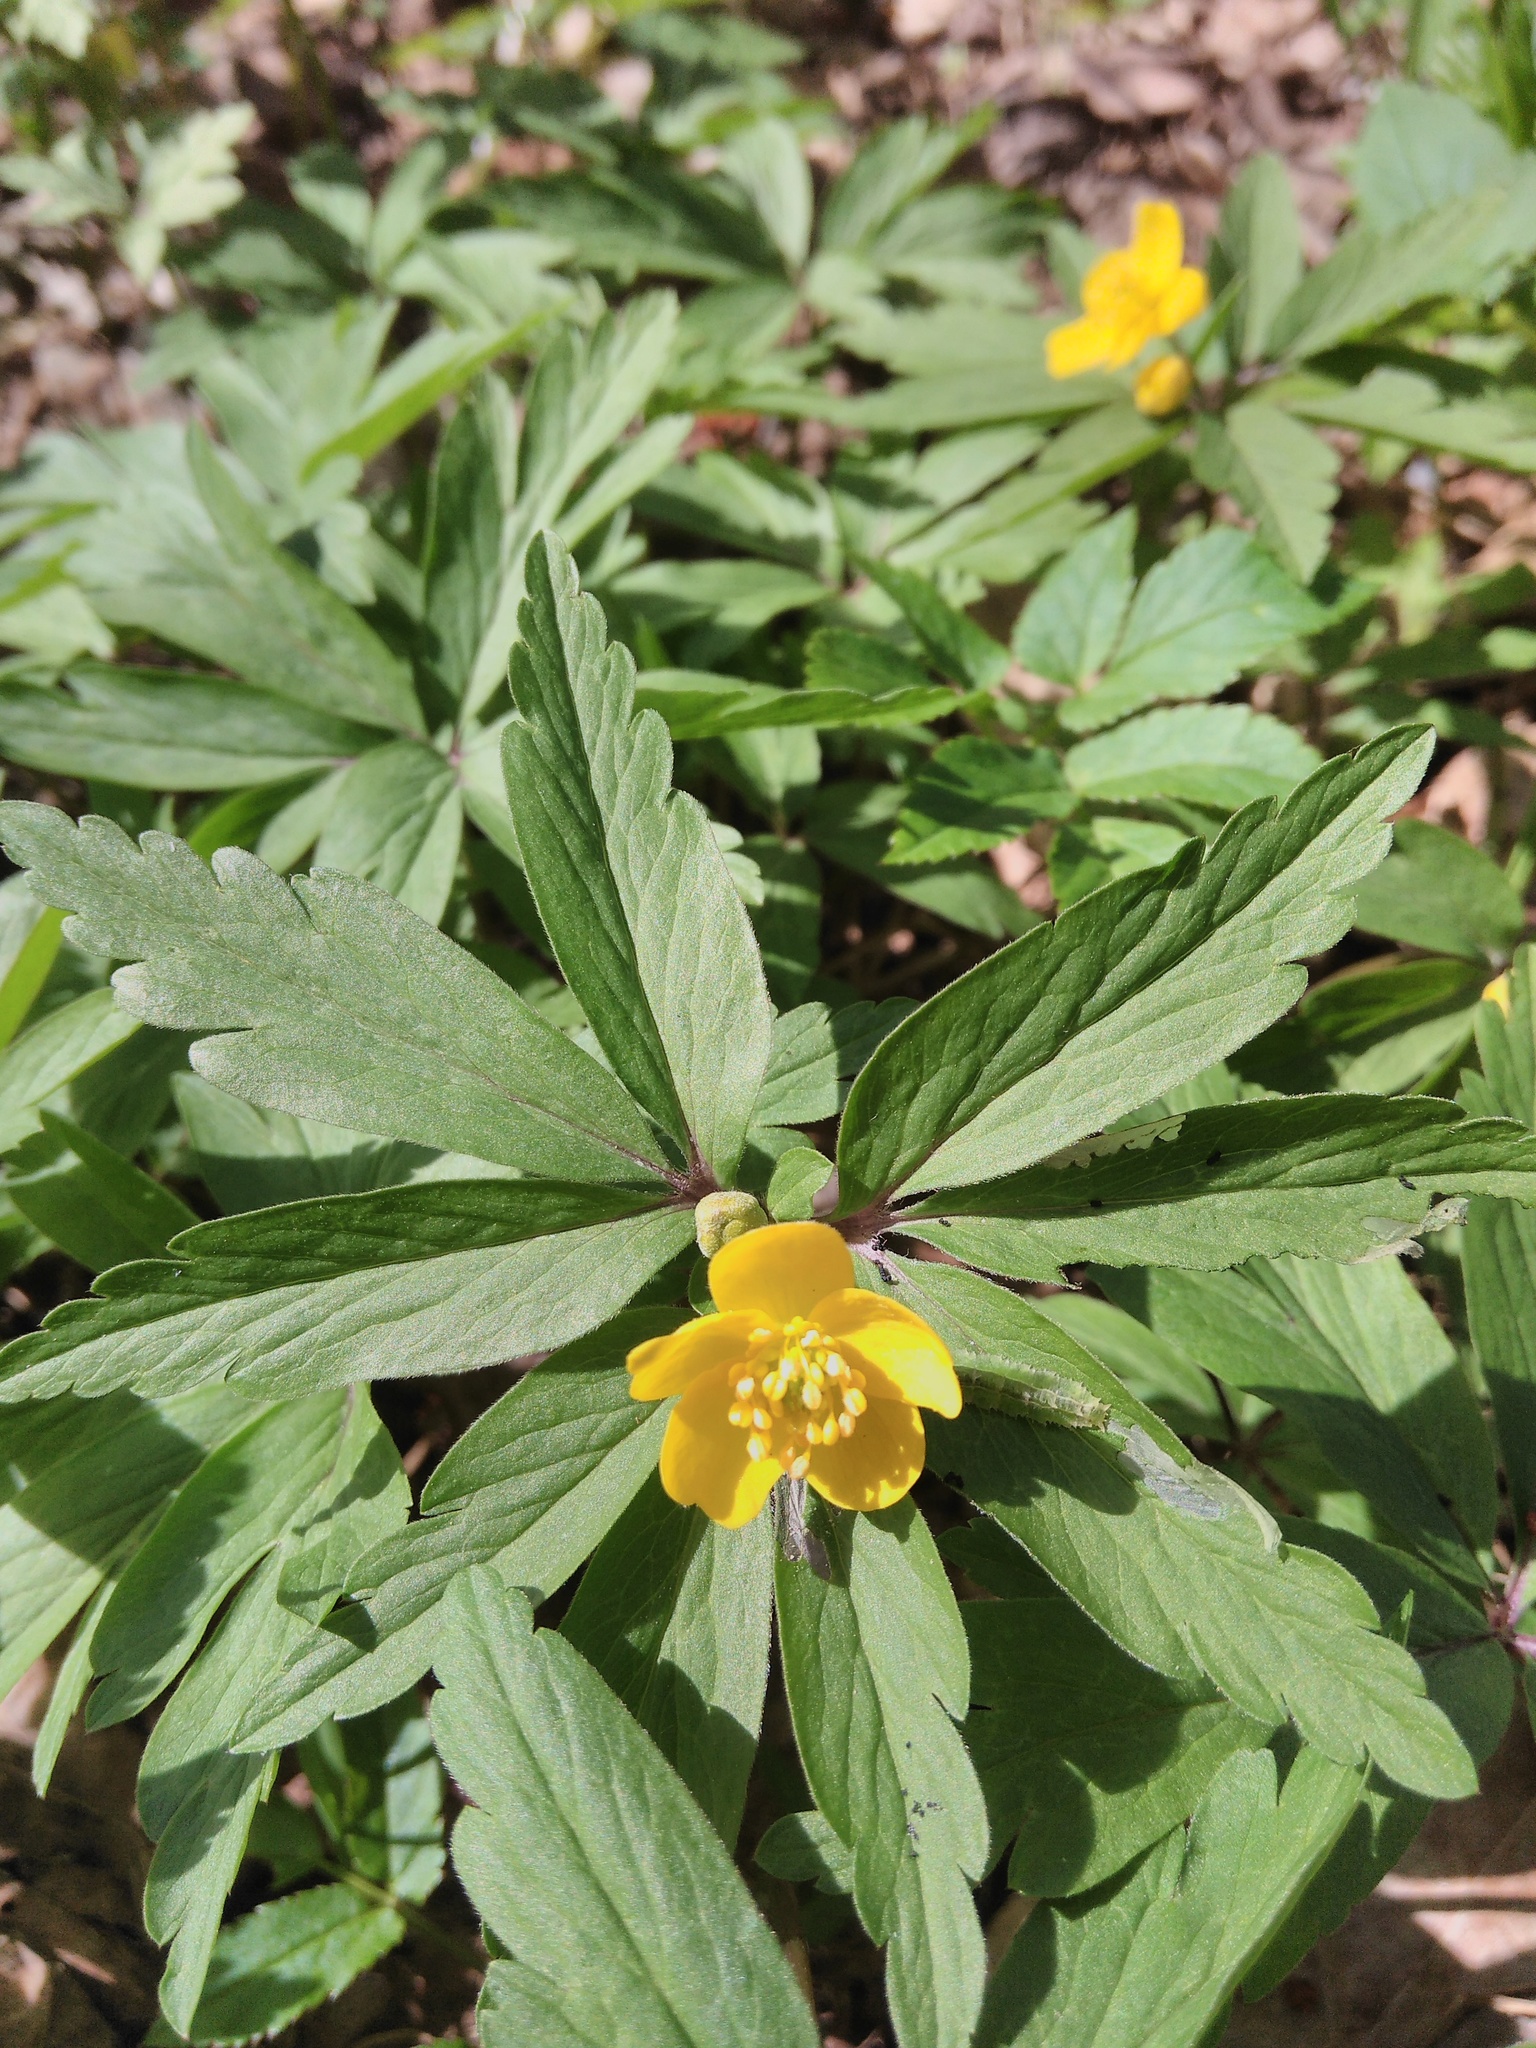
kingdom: Plantae
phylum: Tracheophyta
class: Magnoliopsida
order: Ranunculales
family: Ranunculaceae
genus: Anemone
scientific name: Anemone ranunculoides
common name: Yellow anemone
